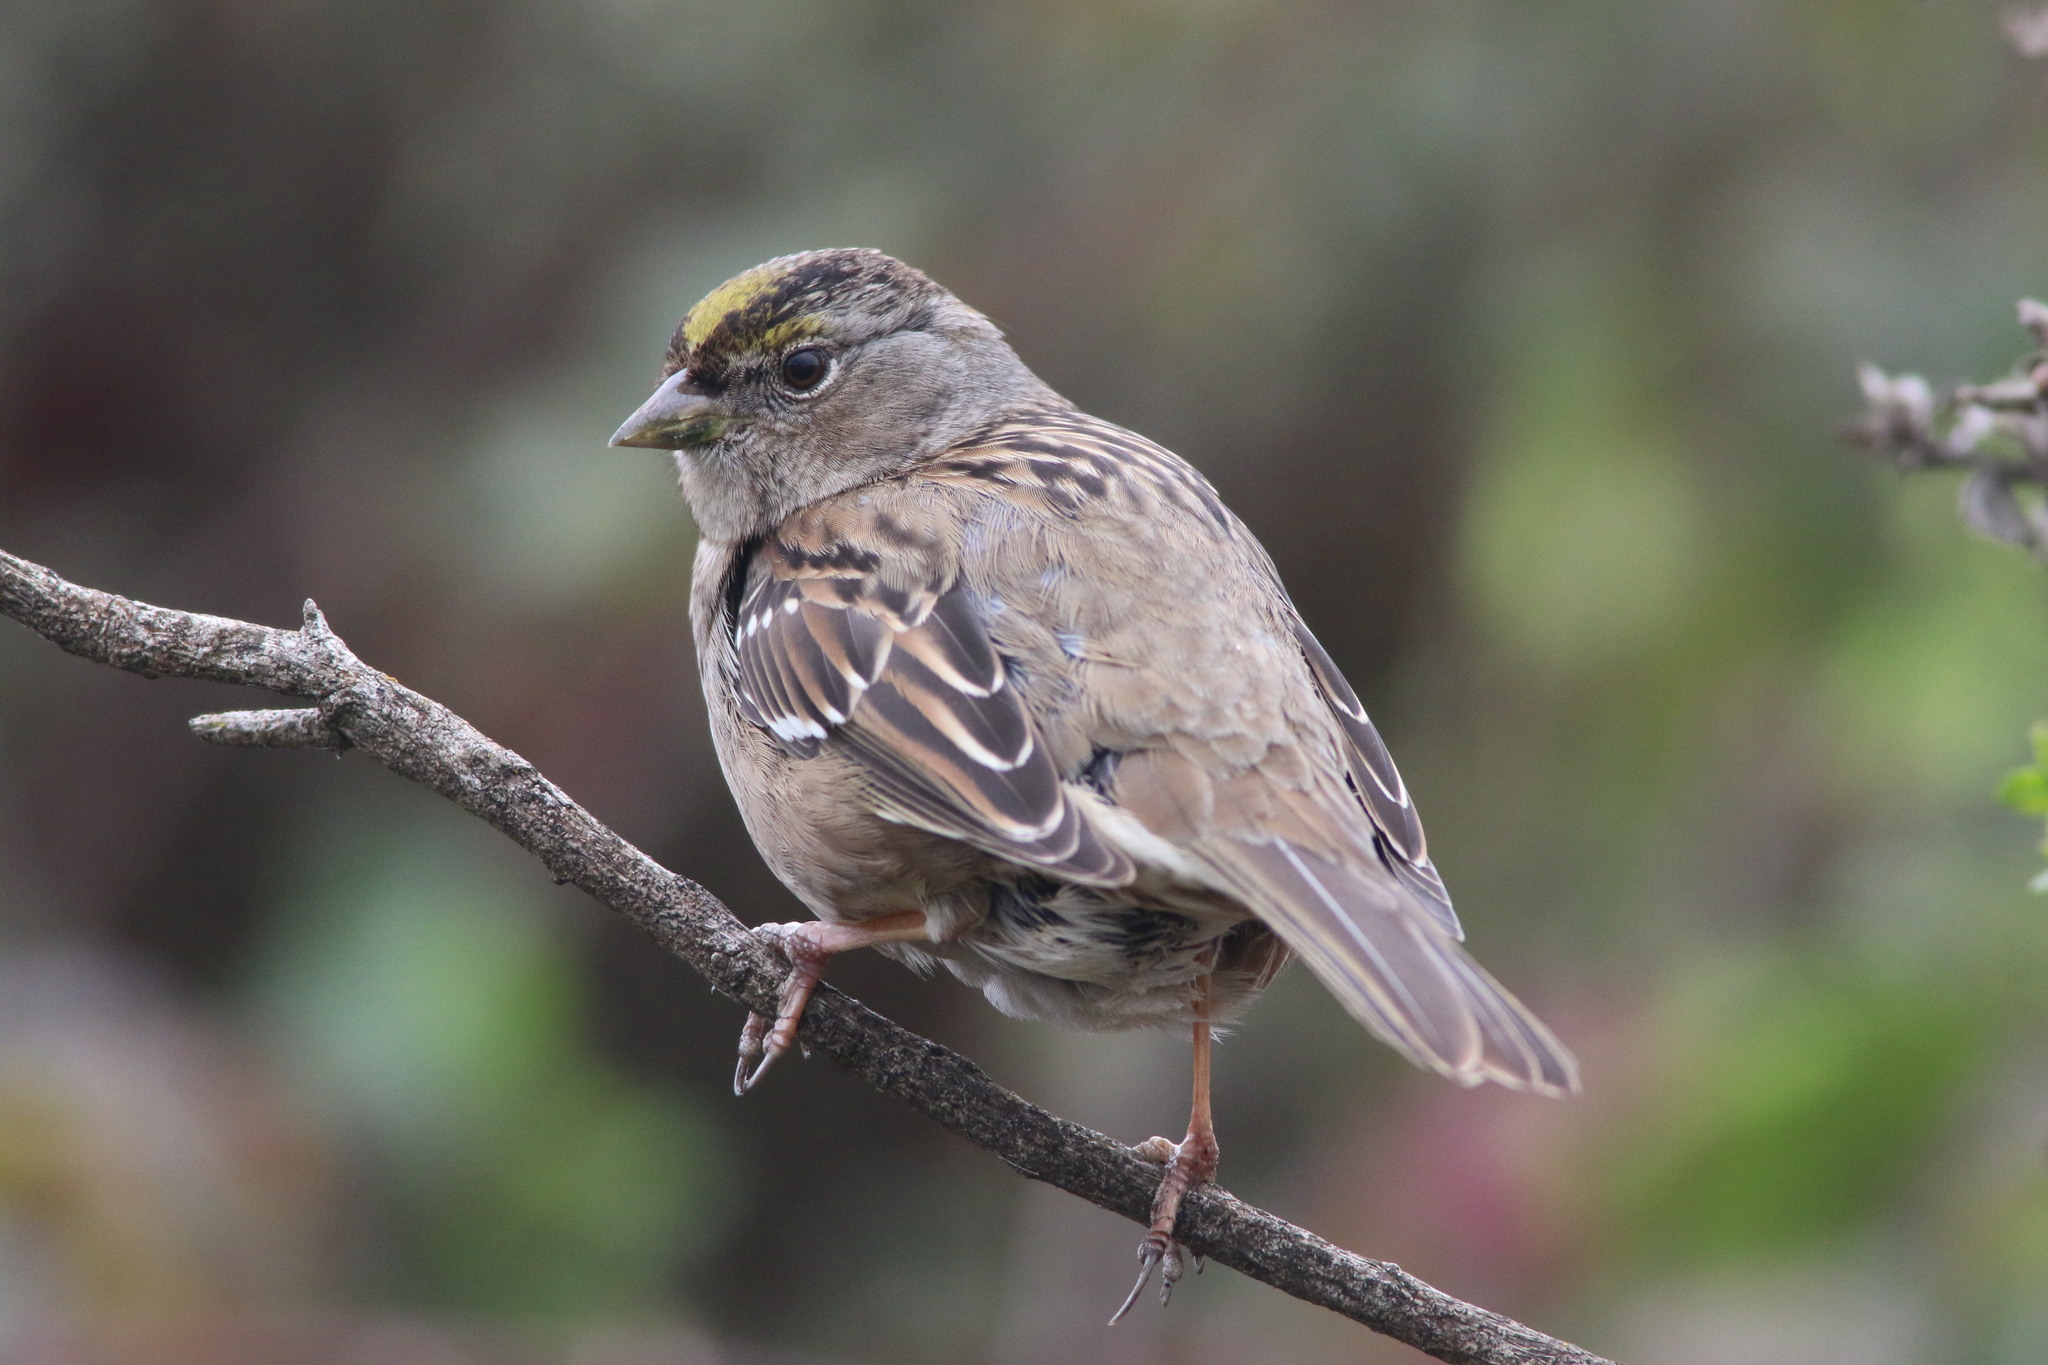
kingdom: Animalia
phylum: Chordata
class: Aves
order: Passeriformes
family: Passerellidae
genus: Zonotrichia
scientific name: Zonotrichia atricapilla
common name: Golden-crowned sparrow
